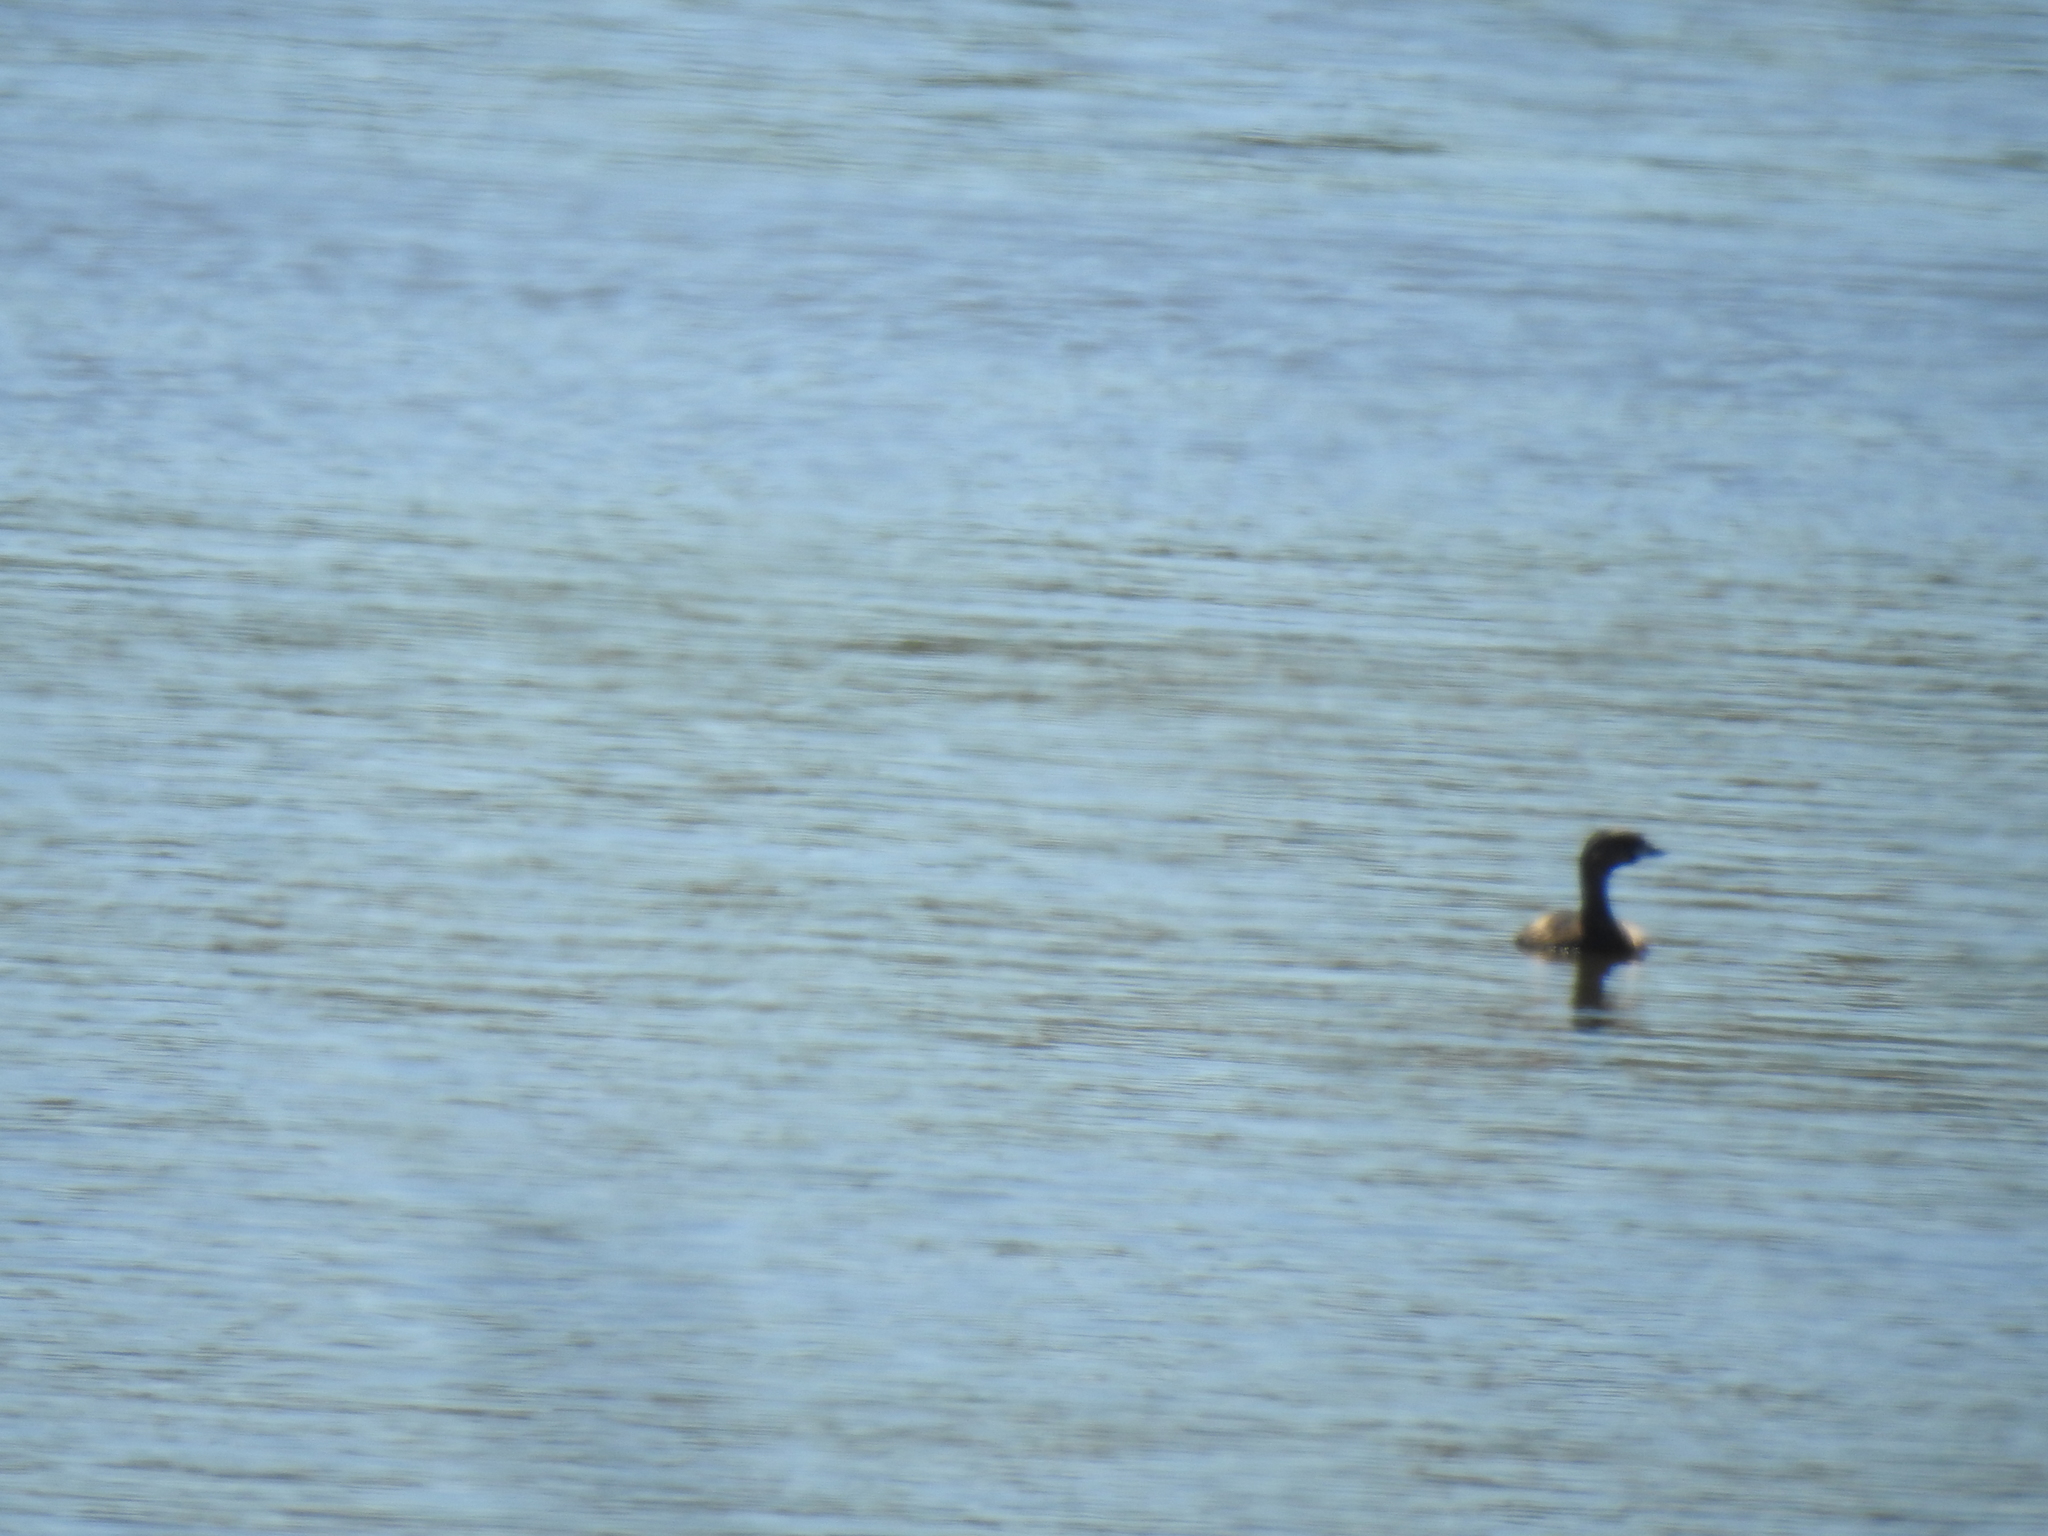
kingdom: Animalia
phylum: Chordata
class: Aves
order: Podicipediformes
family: Podicipedidae
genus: Podilymbus
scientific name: Podilymbus podiceps
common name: Pied-billed grebe
